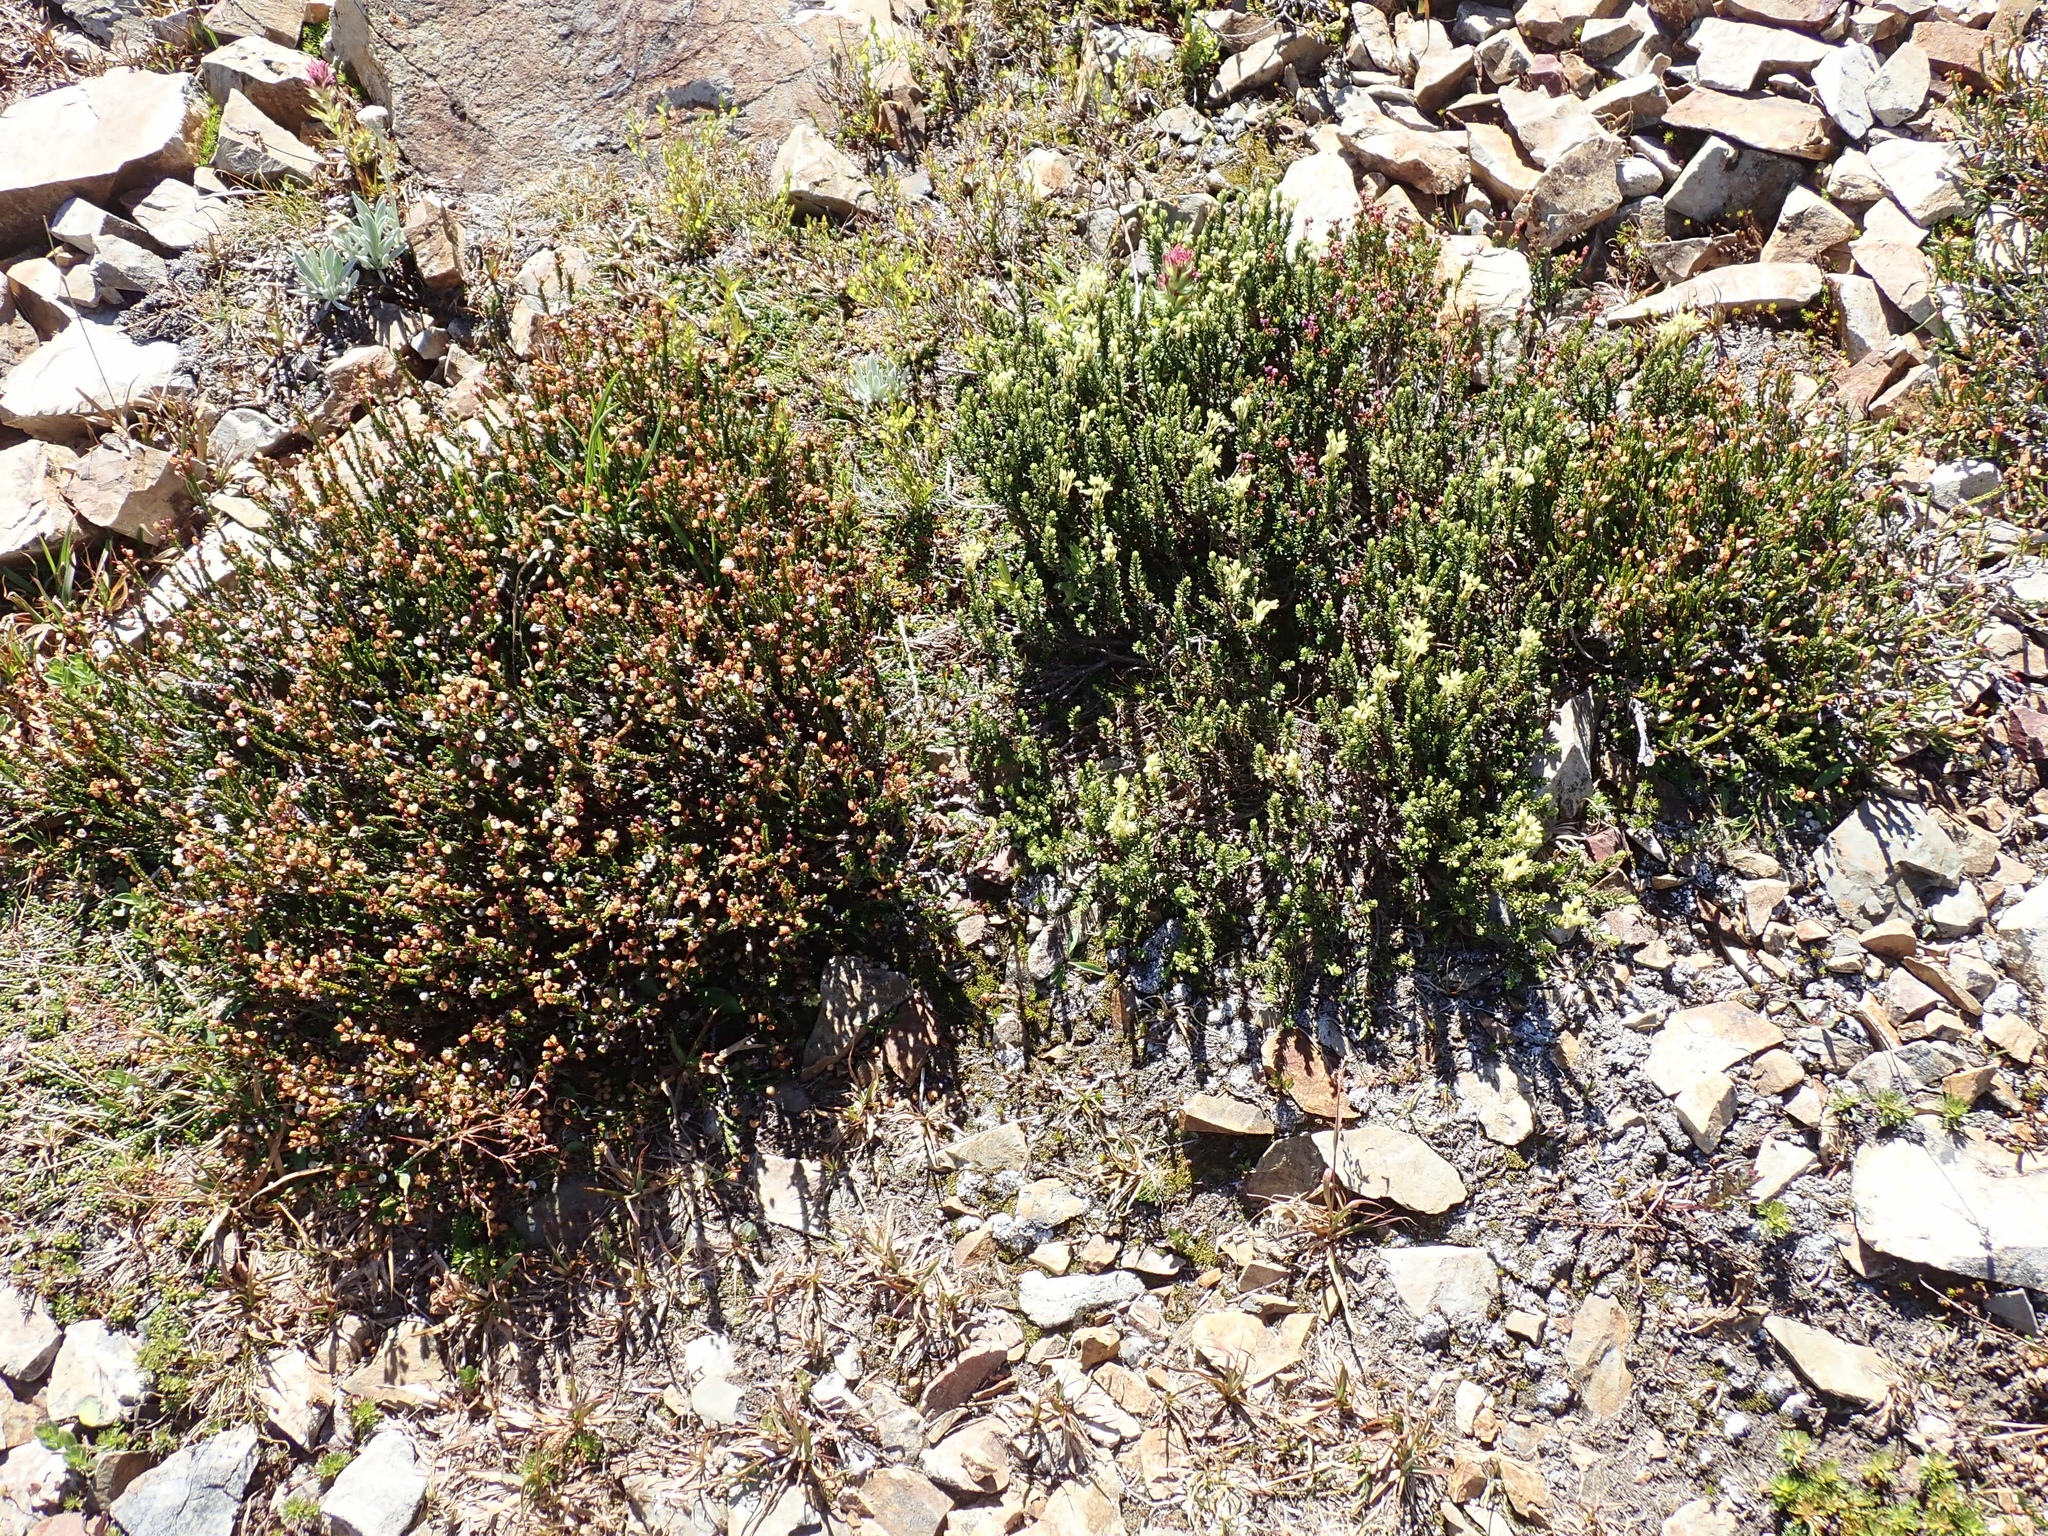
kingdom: Plantae
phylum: Tracheophyta
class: Magnoliopsida
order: Ericales
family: Ericaceae
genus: Phyllodoce
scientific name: Phyllodoce empetriformis
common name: Pink mountain heather
